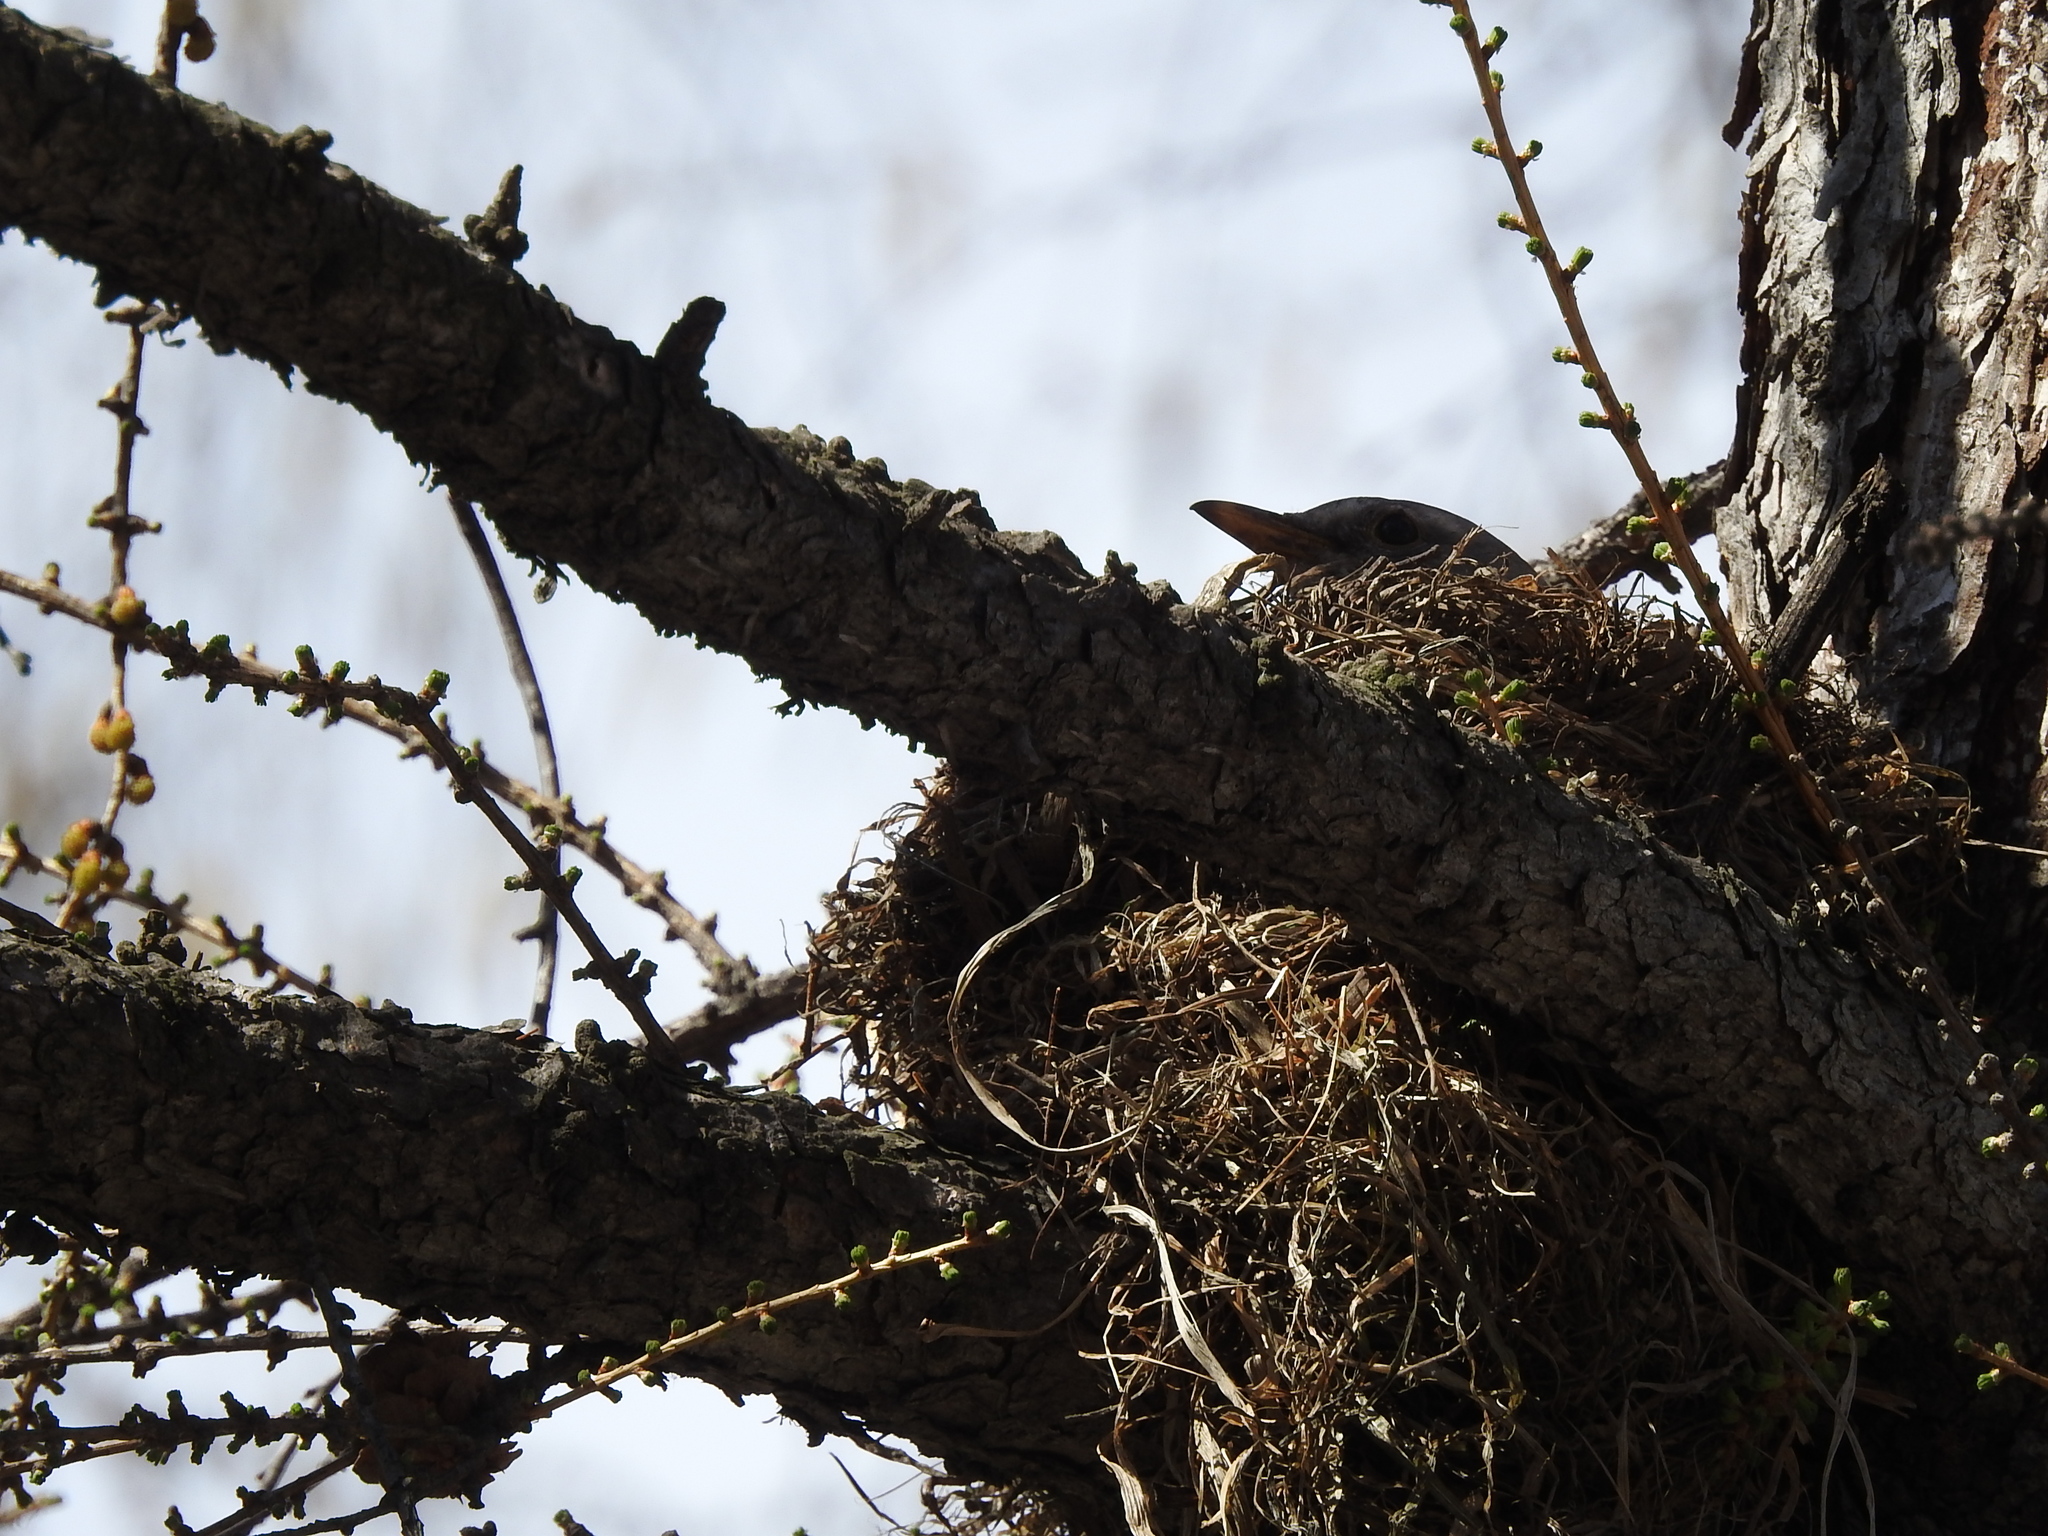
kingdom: Animalia
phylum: Chordata
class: Aves
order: Passeriformes
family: Turdidae
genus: Turdus
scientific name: Turdus pilaris
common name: Fieldfare
